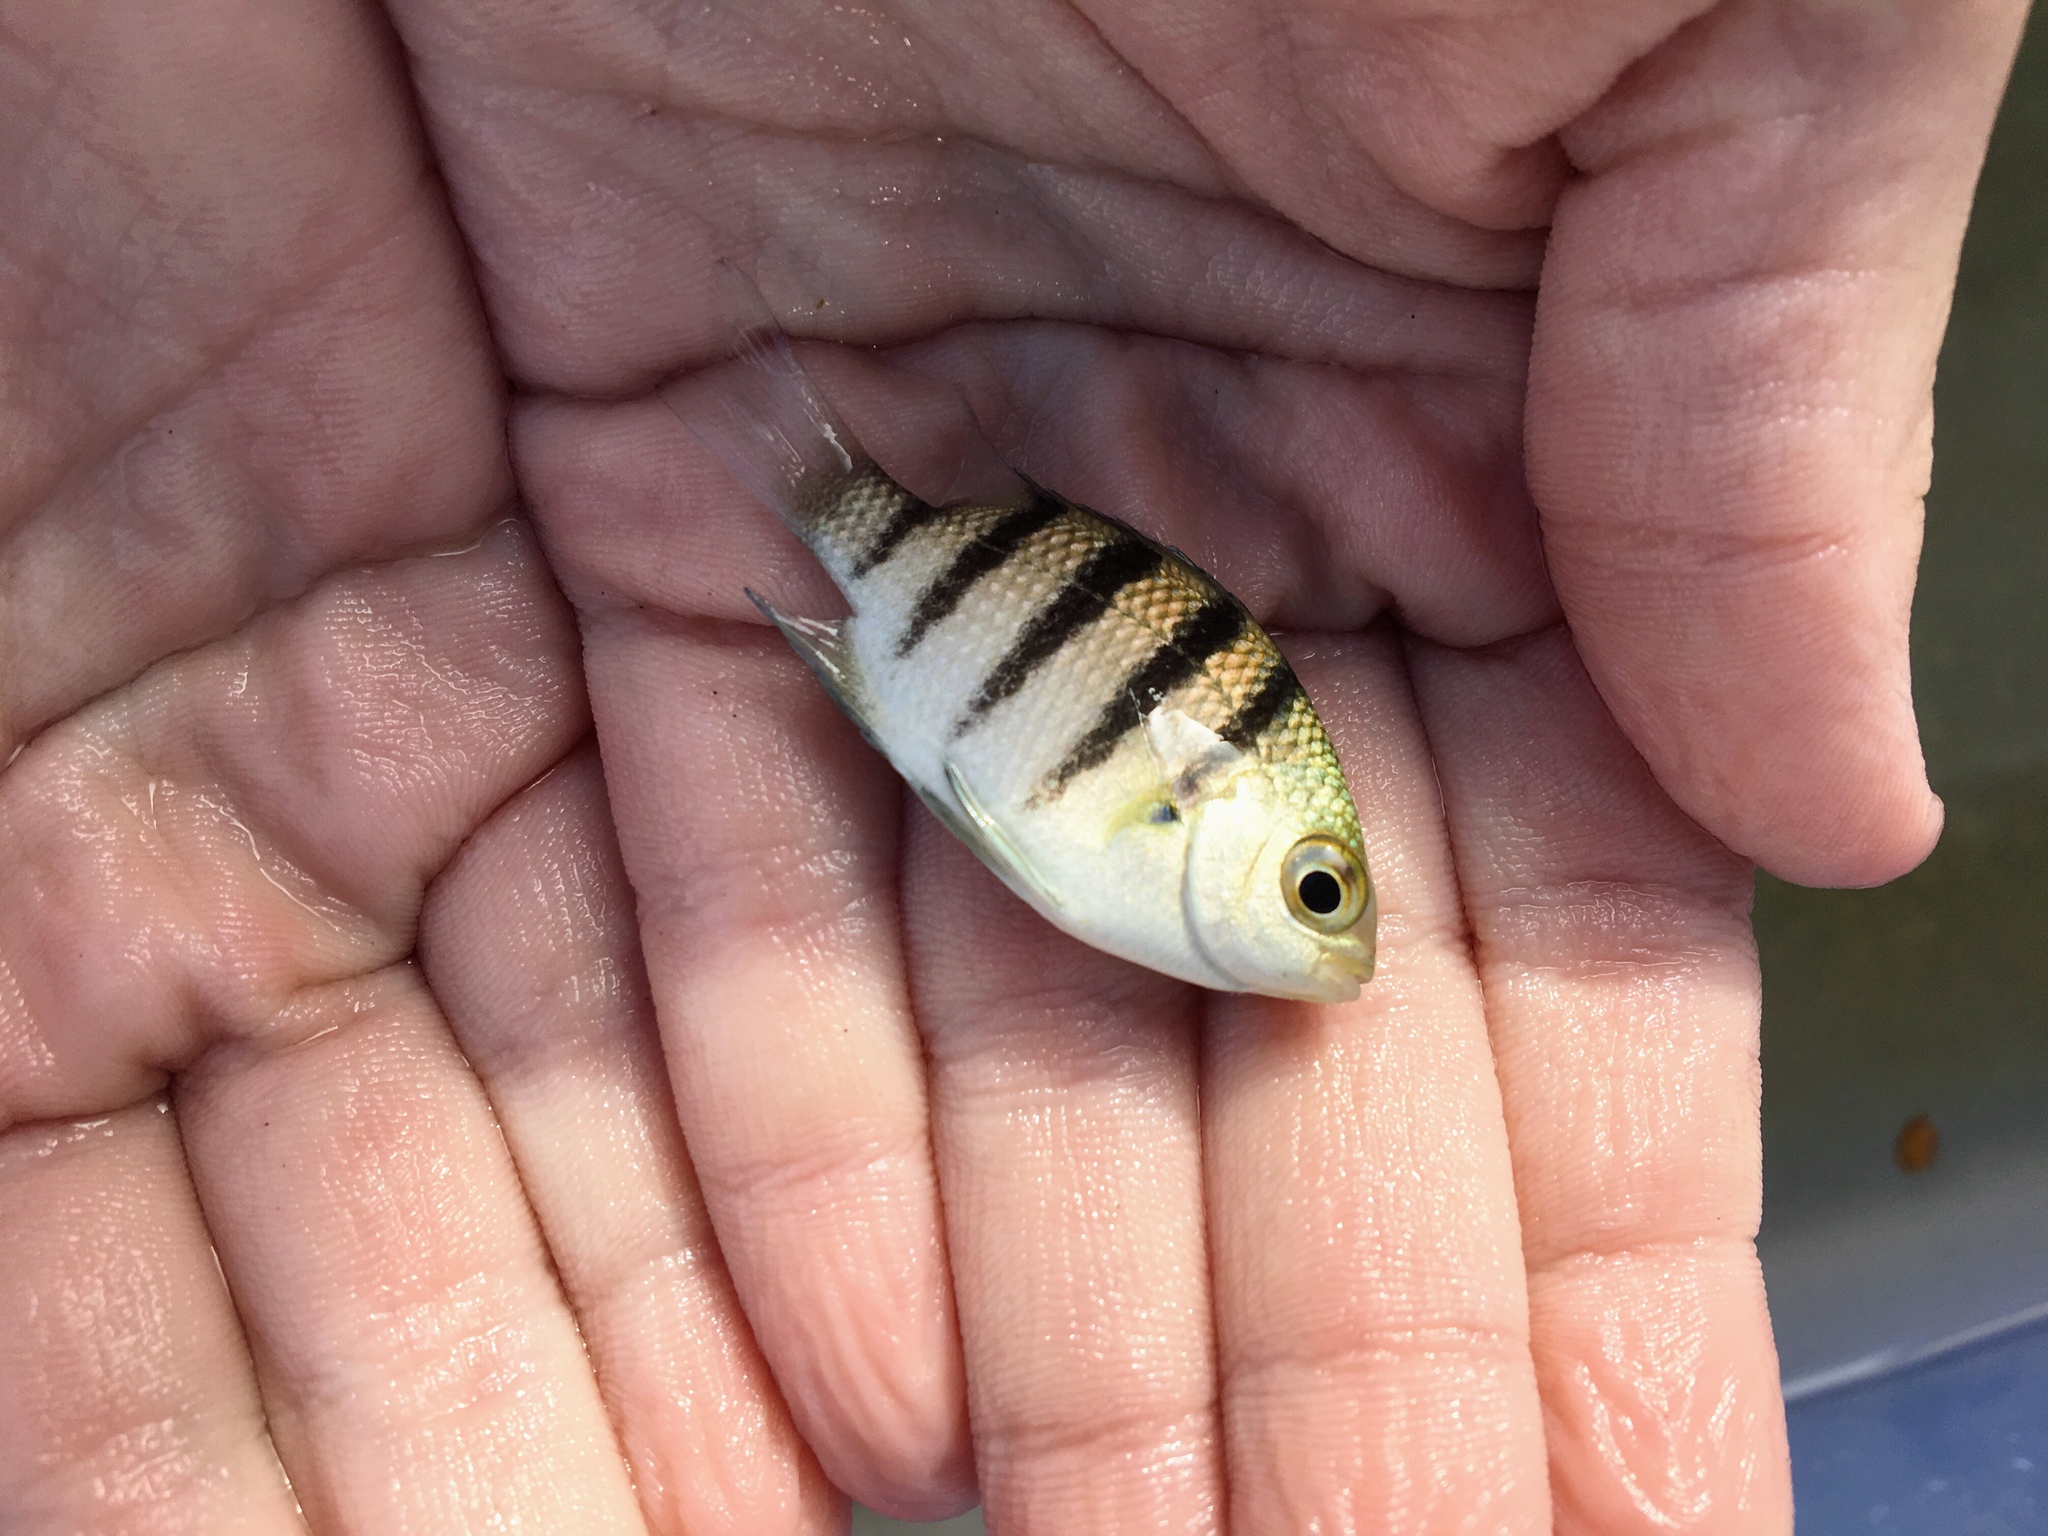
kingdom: Animalia
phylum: Chordata
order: Perciformes
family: Pomacentridae
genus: Abudefduf
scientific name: Abudefduf saxatilis
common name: Sergeant major
